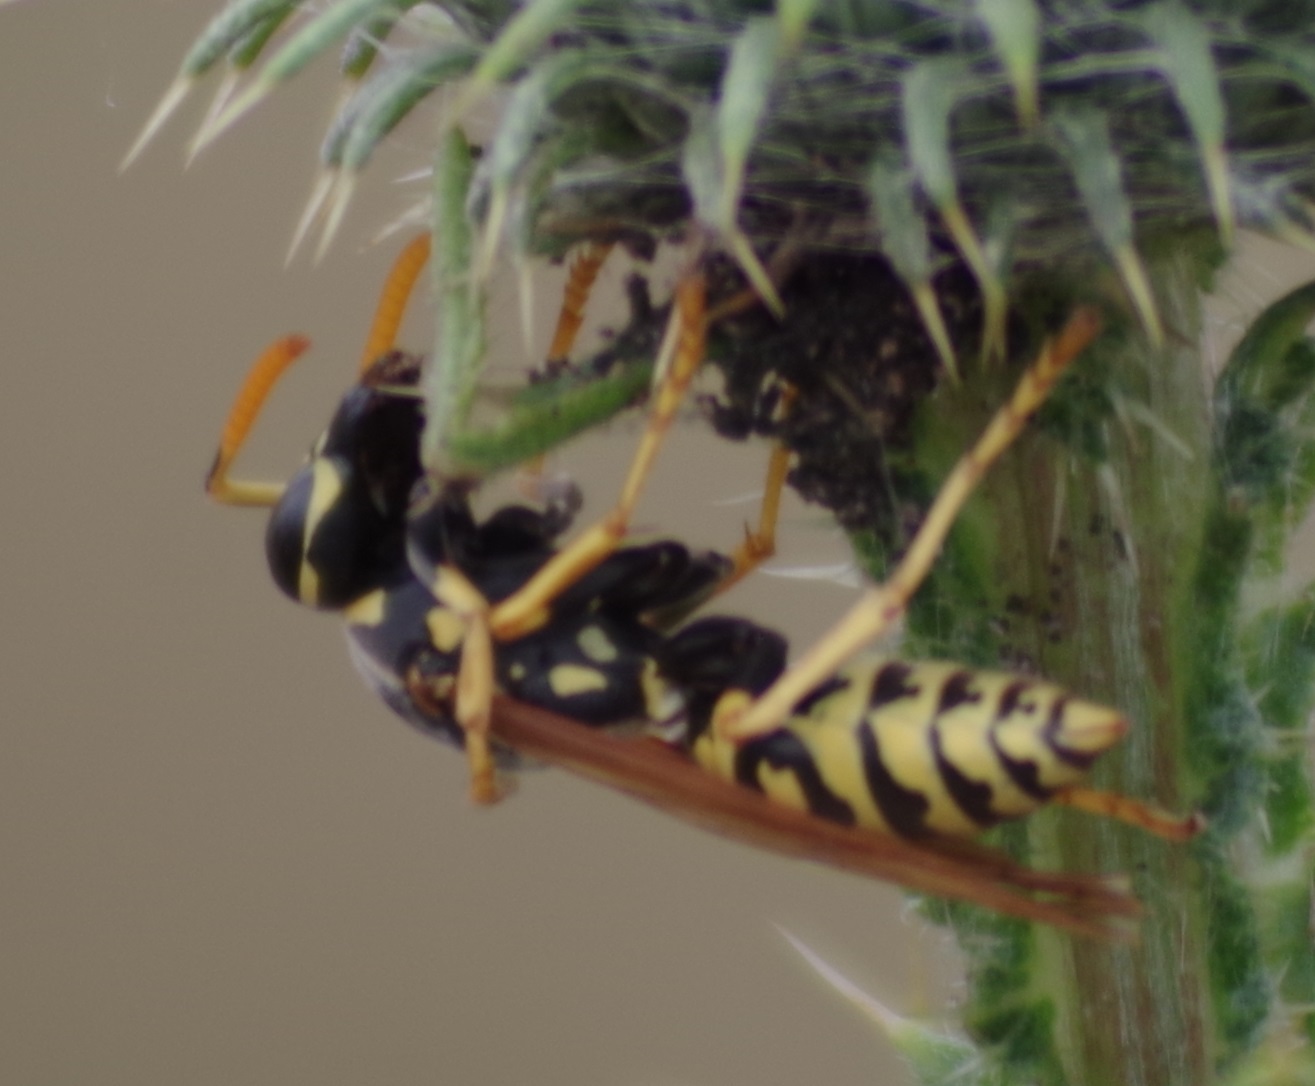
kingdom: Animalia
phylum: Arthropoda
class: Insecta
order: Hymenoptera
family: Eumenidae
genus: Polistes
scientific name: Polistes dominula
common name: Paper wasp
